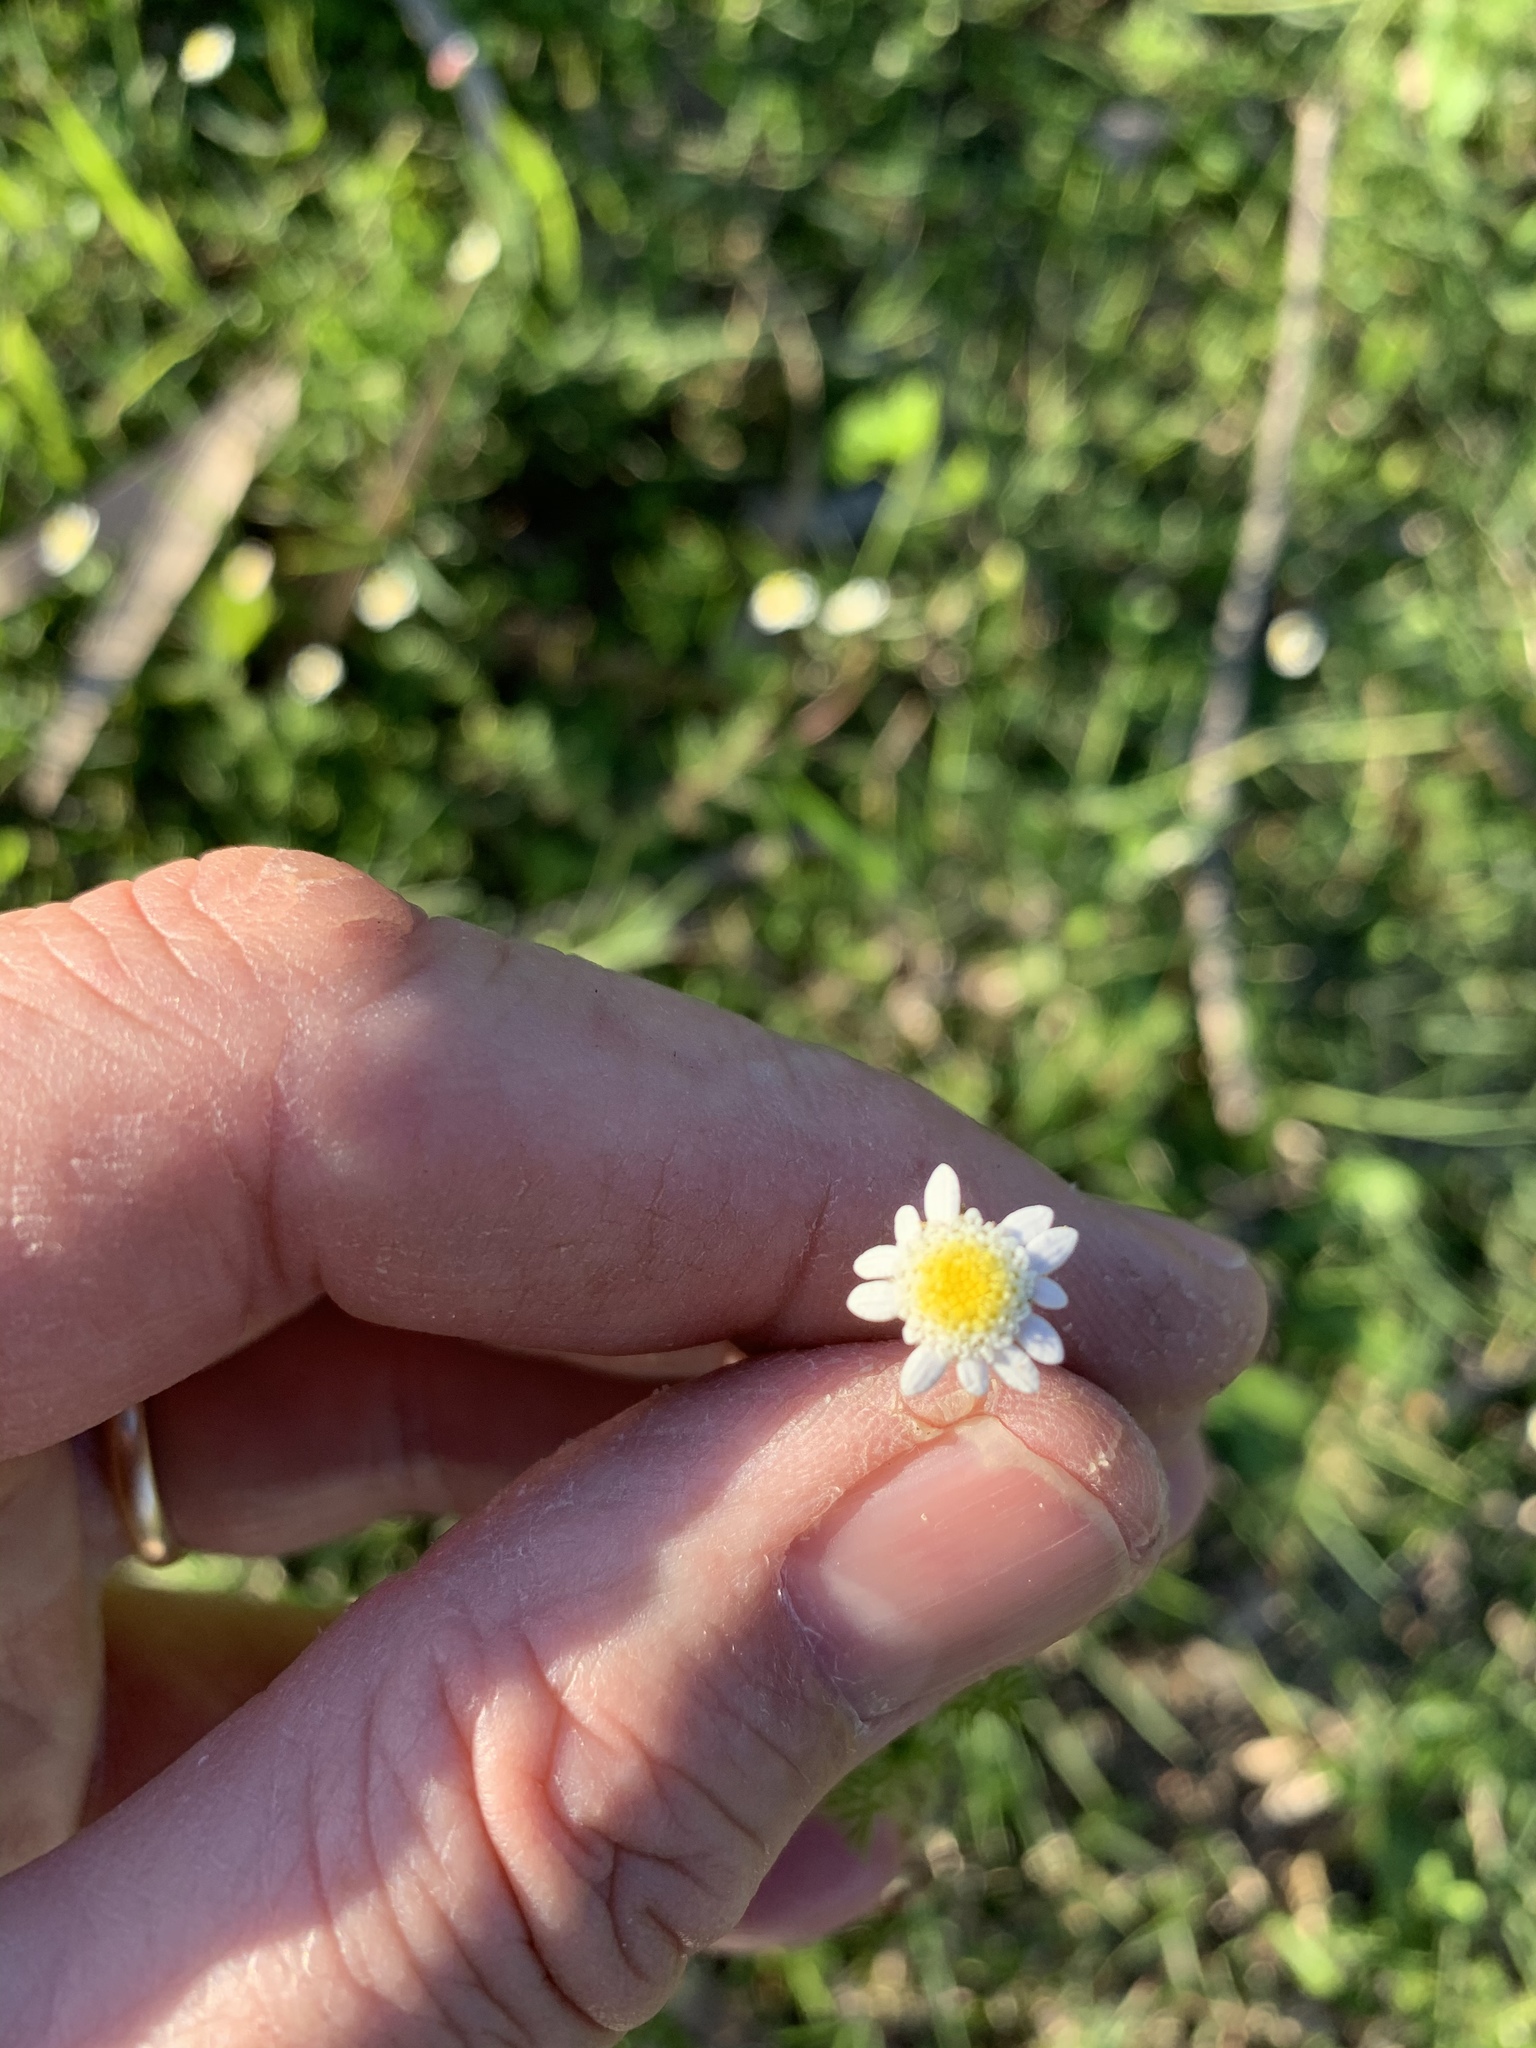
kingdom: Plantae
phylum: Tracheophyta
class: Magnoliopsida
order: Asterales
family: Asteraceae
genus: Cotula
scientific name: Cotula turbinata
